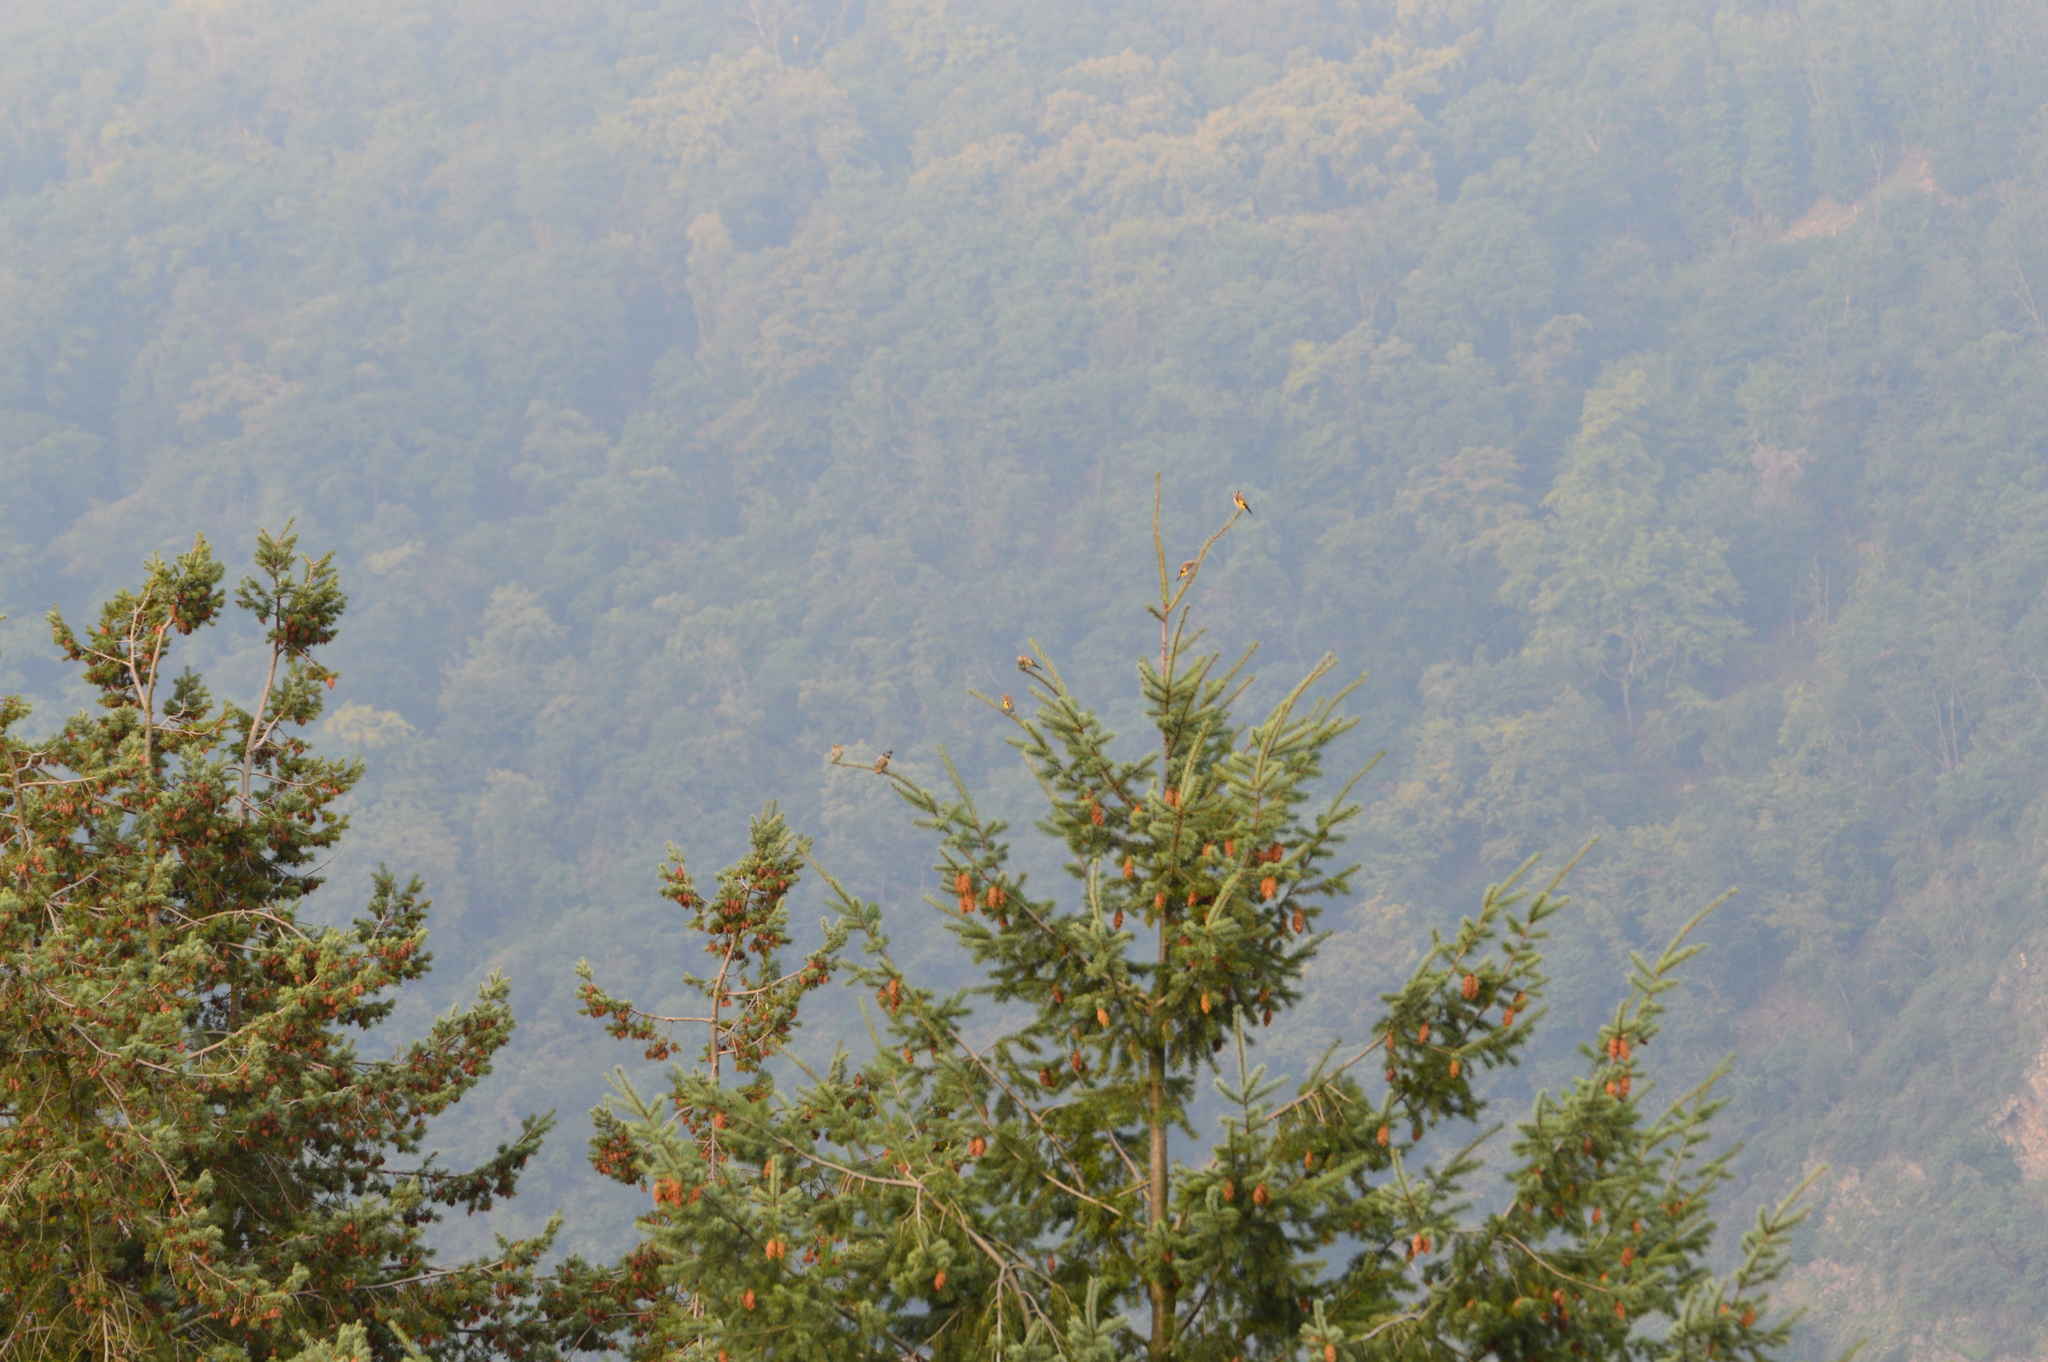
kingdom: Animalia
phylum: Chordata
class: Aves
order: Passeriformes
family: Fringillidae
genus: Carduelis
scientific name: Carduelis carduelis
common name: European goldfinch
